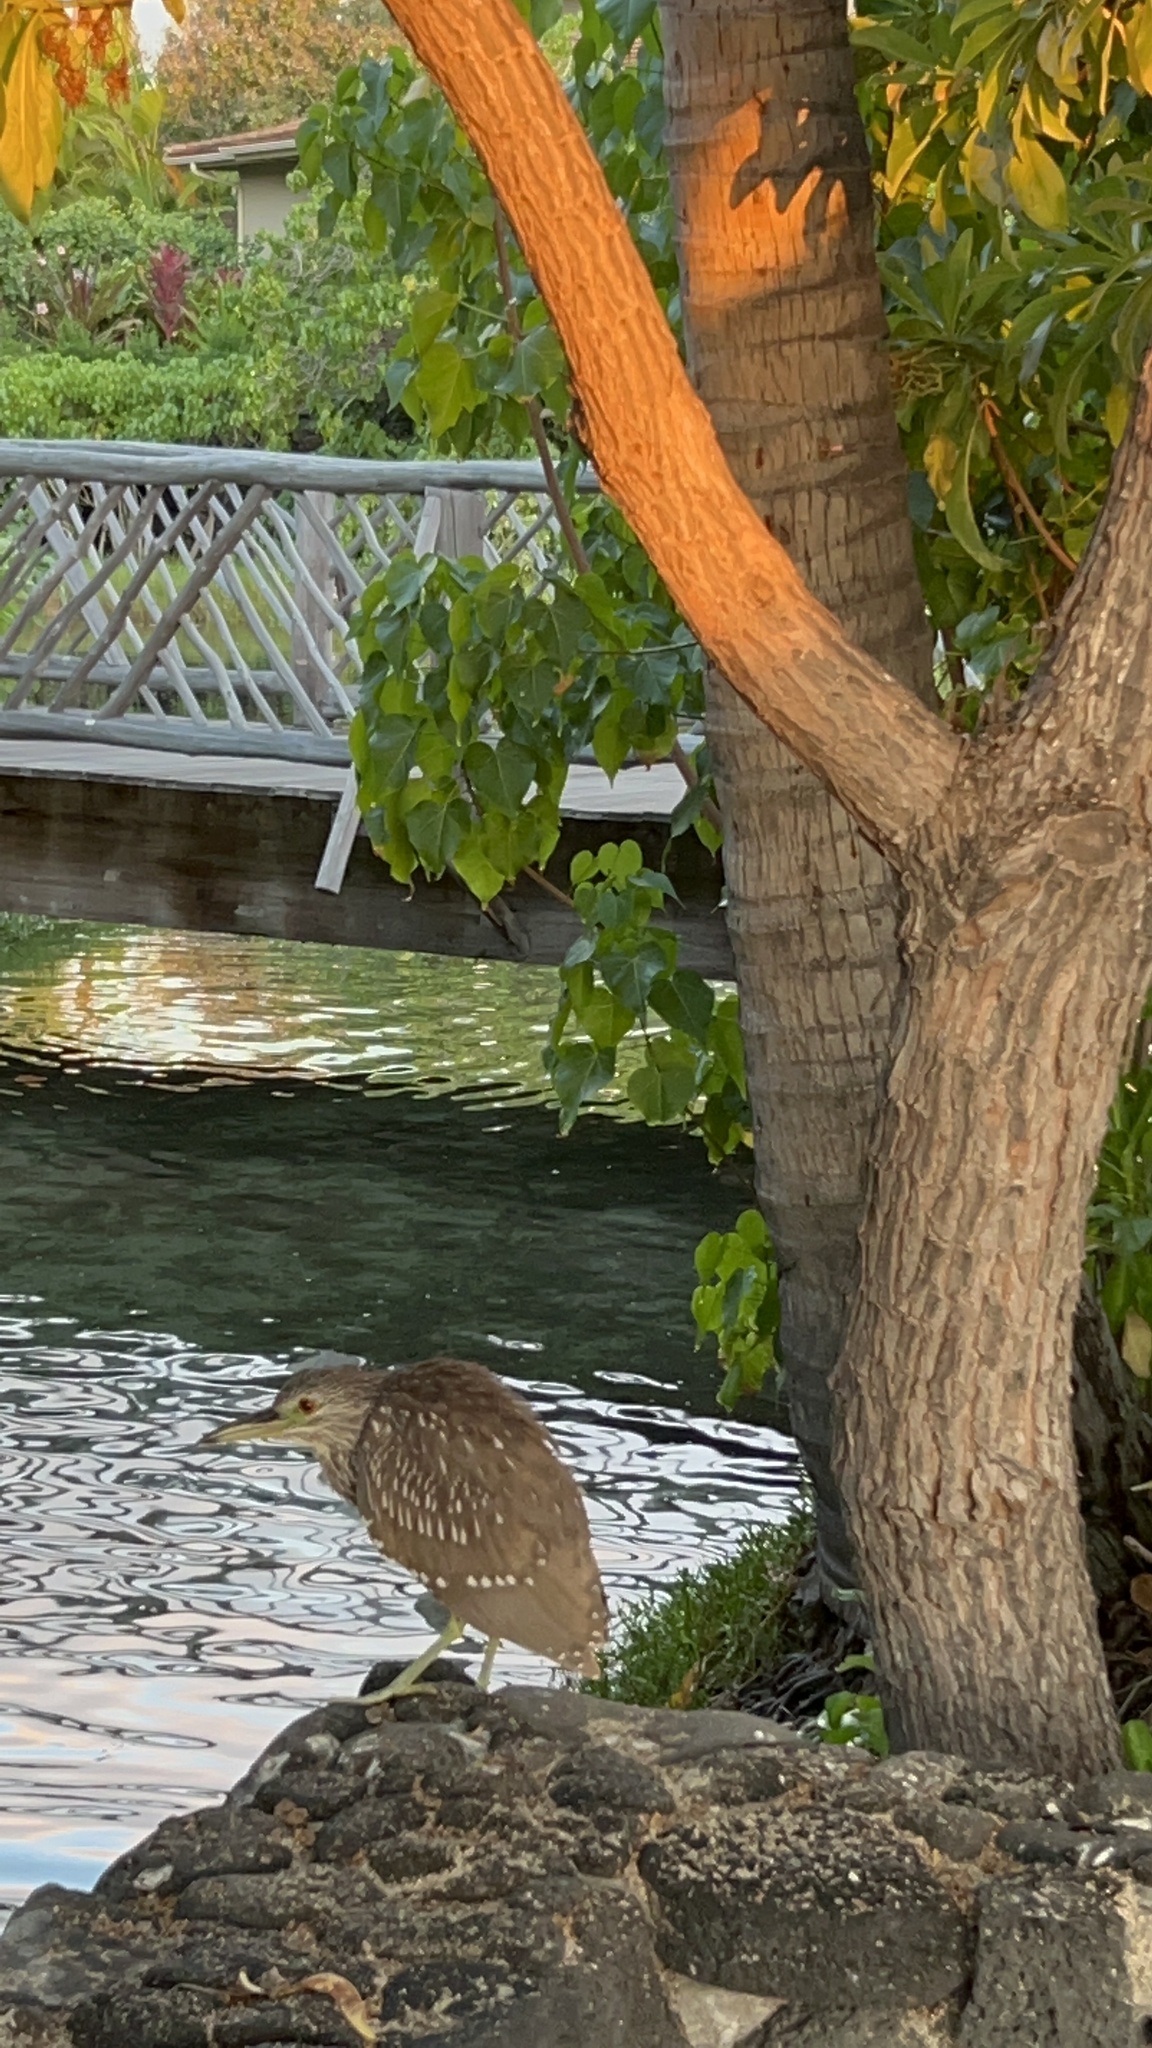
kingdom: Animalia
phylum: Chordata
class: Aves
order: Pelecaniformes
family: Ardeidae
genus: Nycticorax
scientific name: Nycticorax nycticorax
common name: Black-crowned night heron
